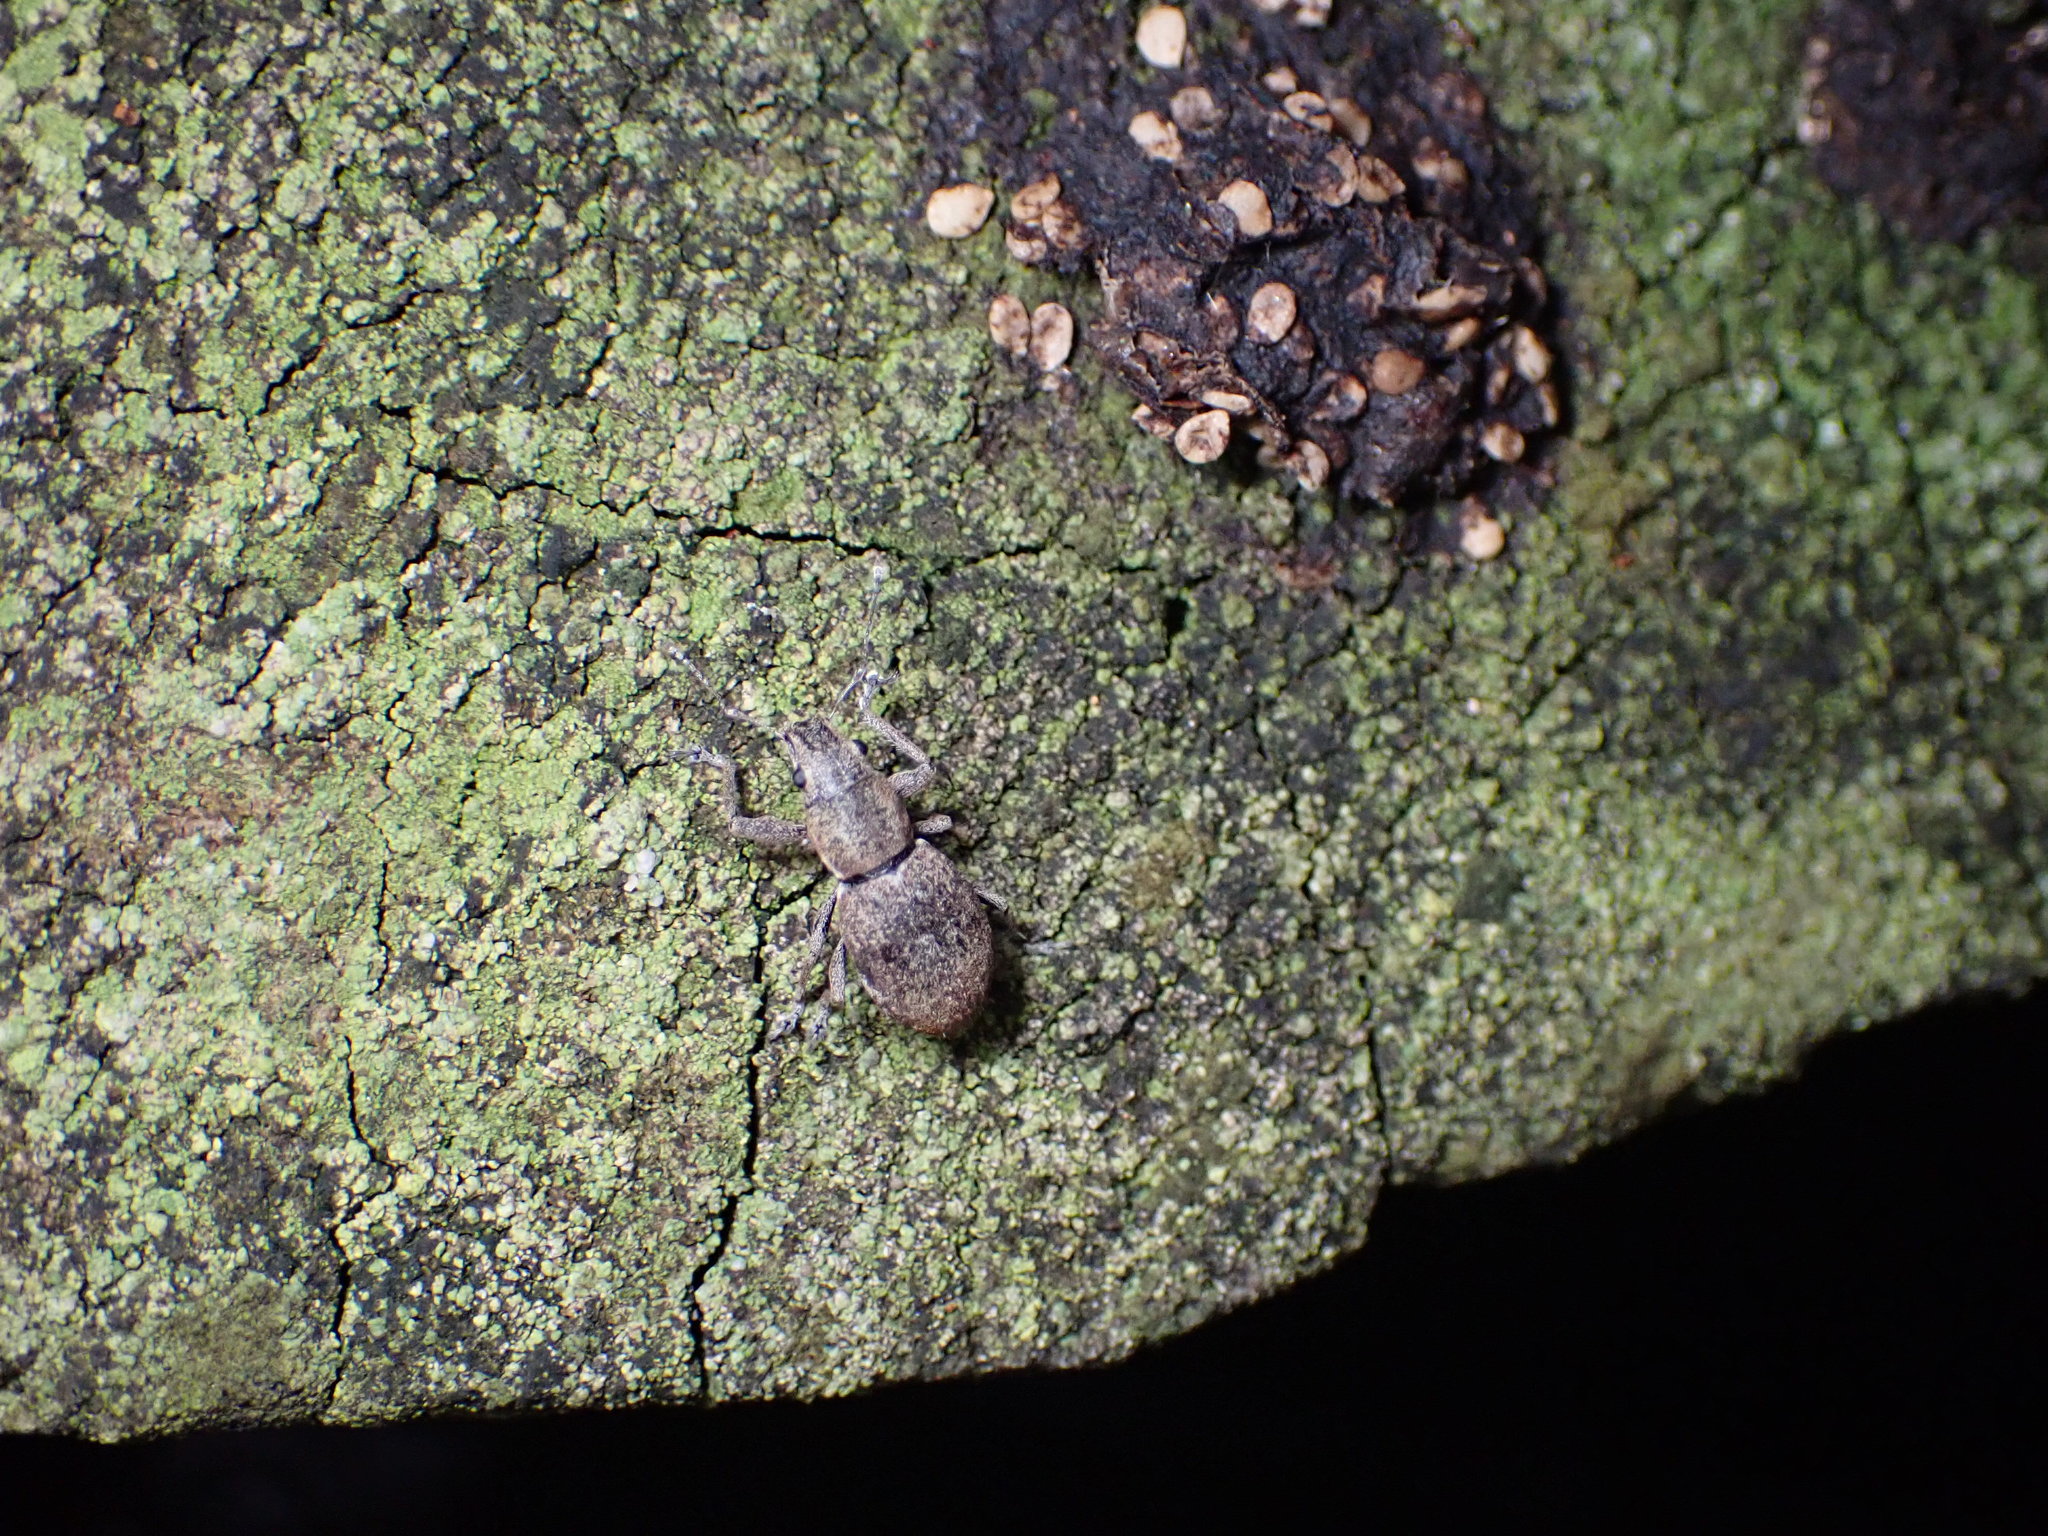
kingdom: Animalia
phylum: Arthropoda
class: Insecta
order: Coleoptera
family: Curculionidae
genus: Naupactus
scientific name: Naupactus cervinus
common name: Fuller rose beetle
